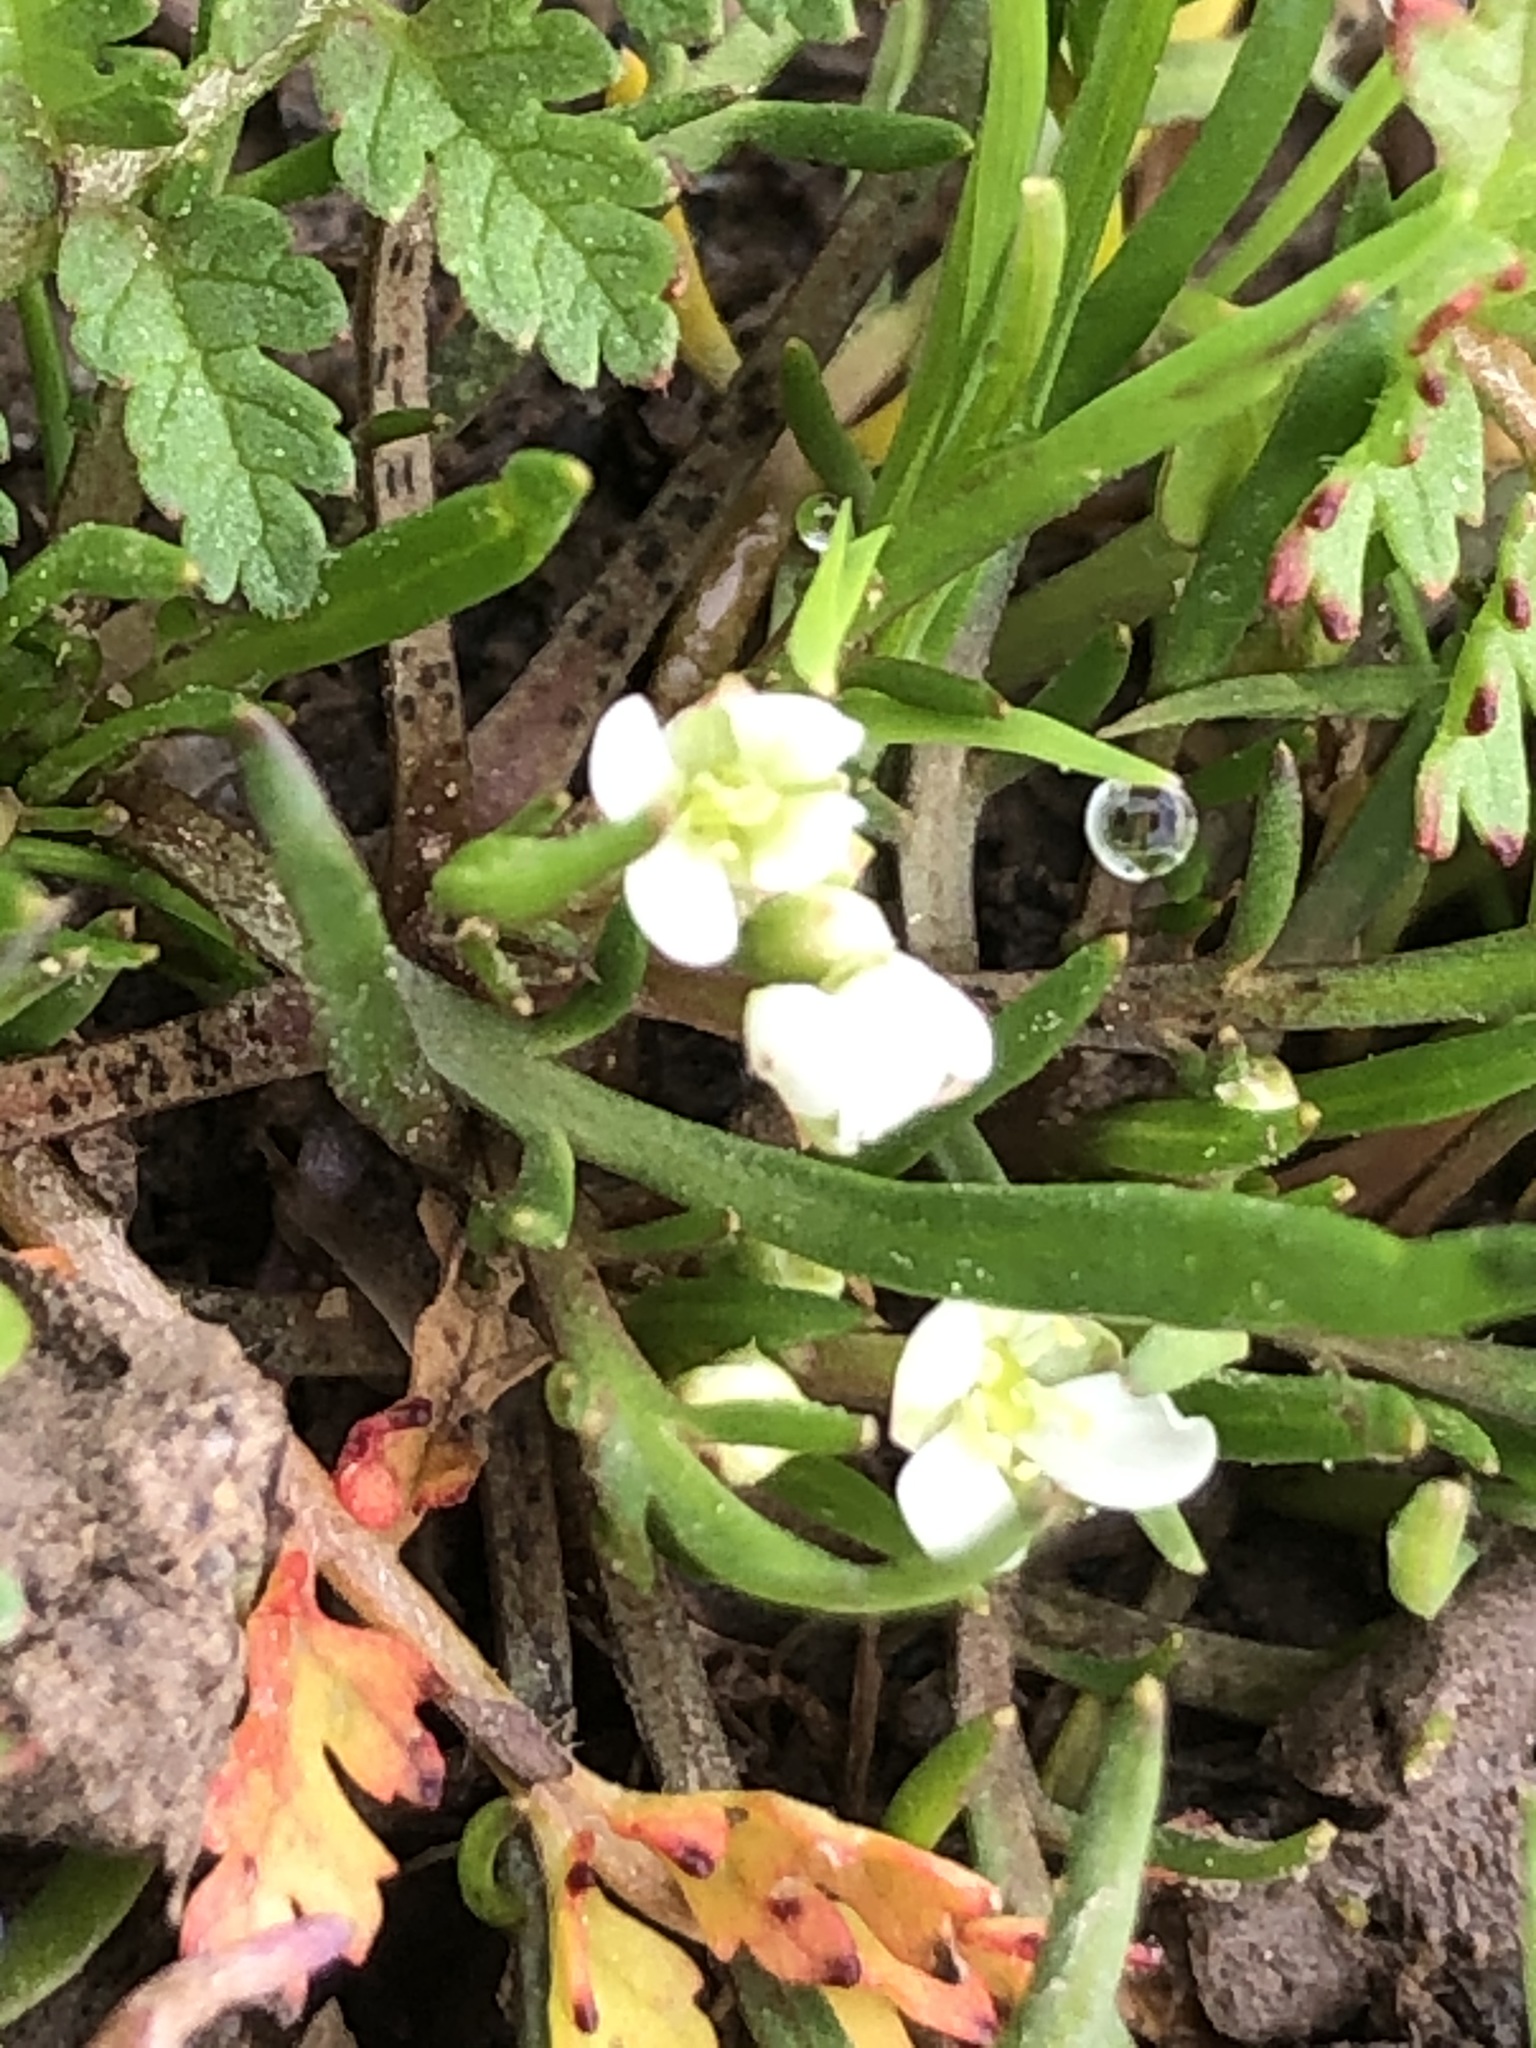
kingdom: Plantae
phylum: Tracheophyta
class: Magnoliopsida
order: Brassicales
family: Brassicaceae
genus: Lepidium
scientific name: Lepidium nitidum
